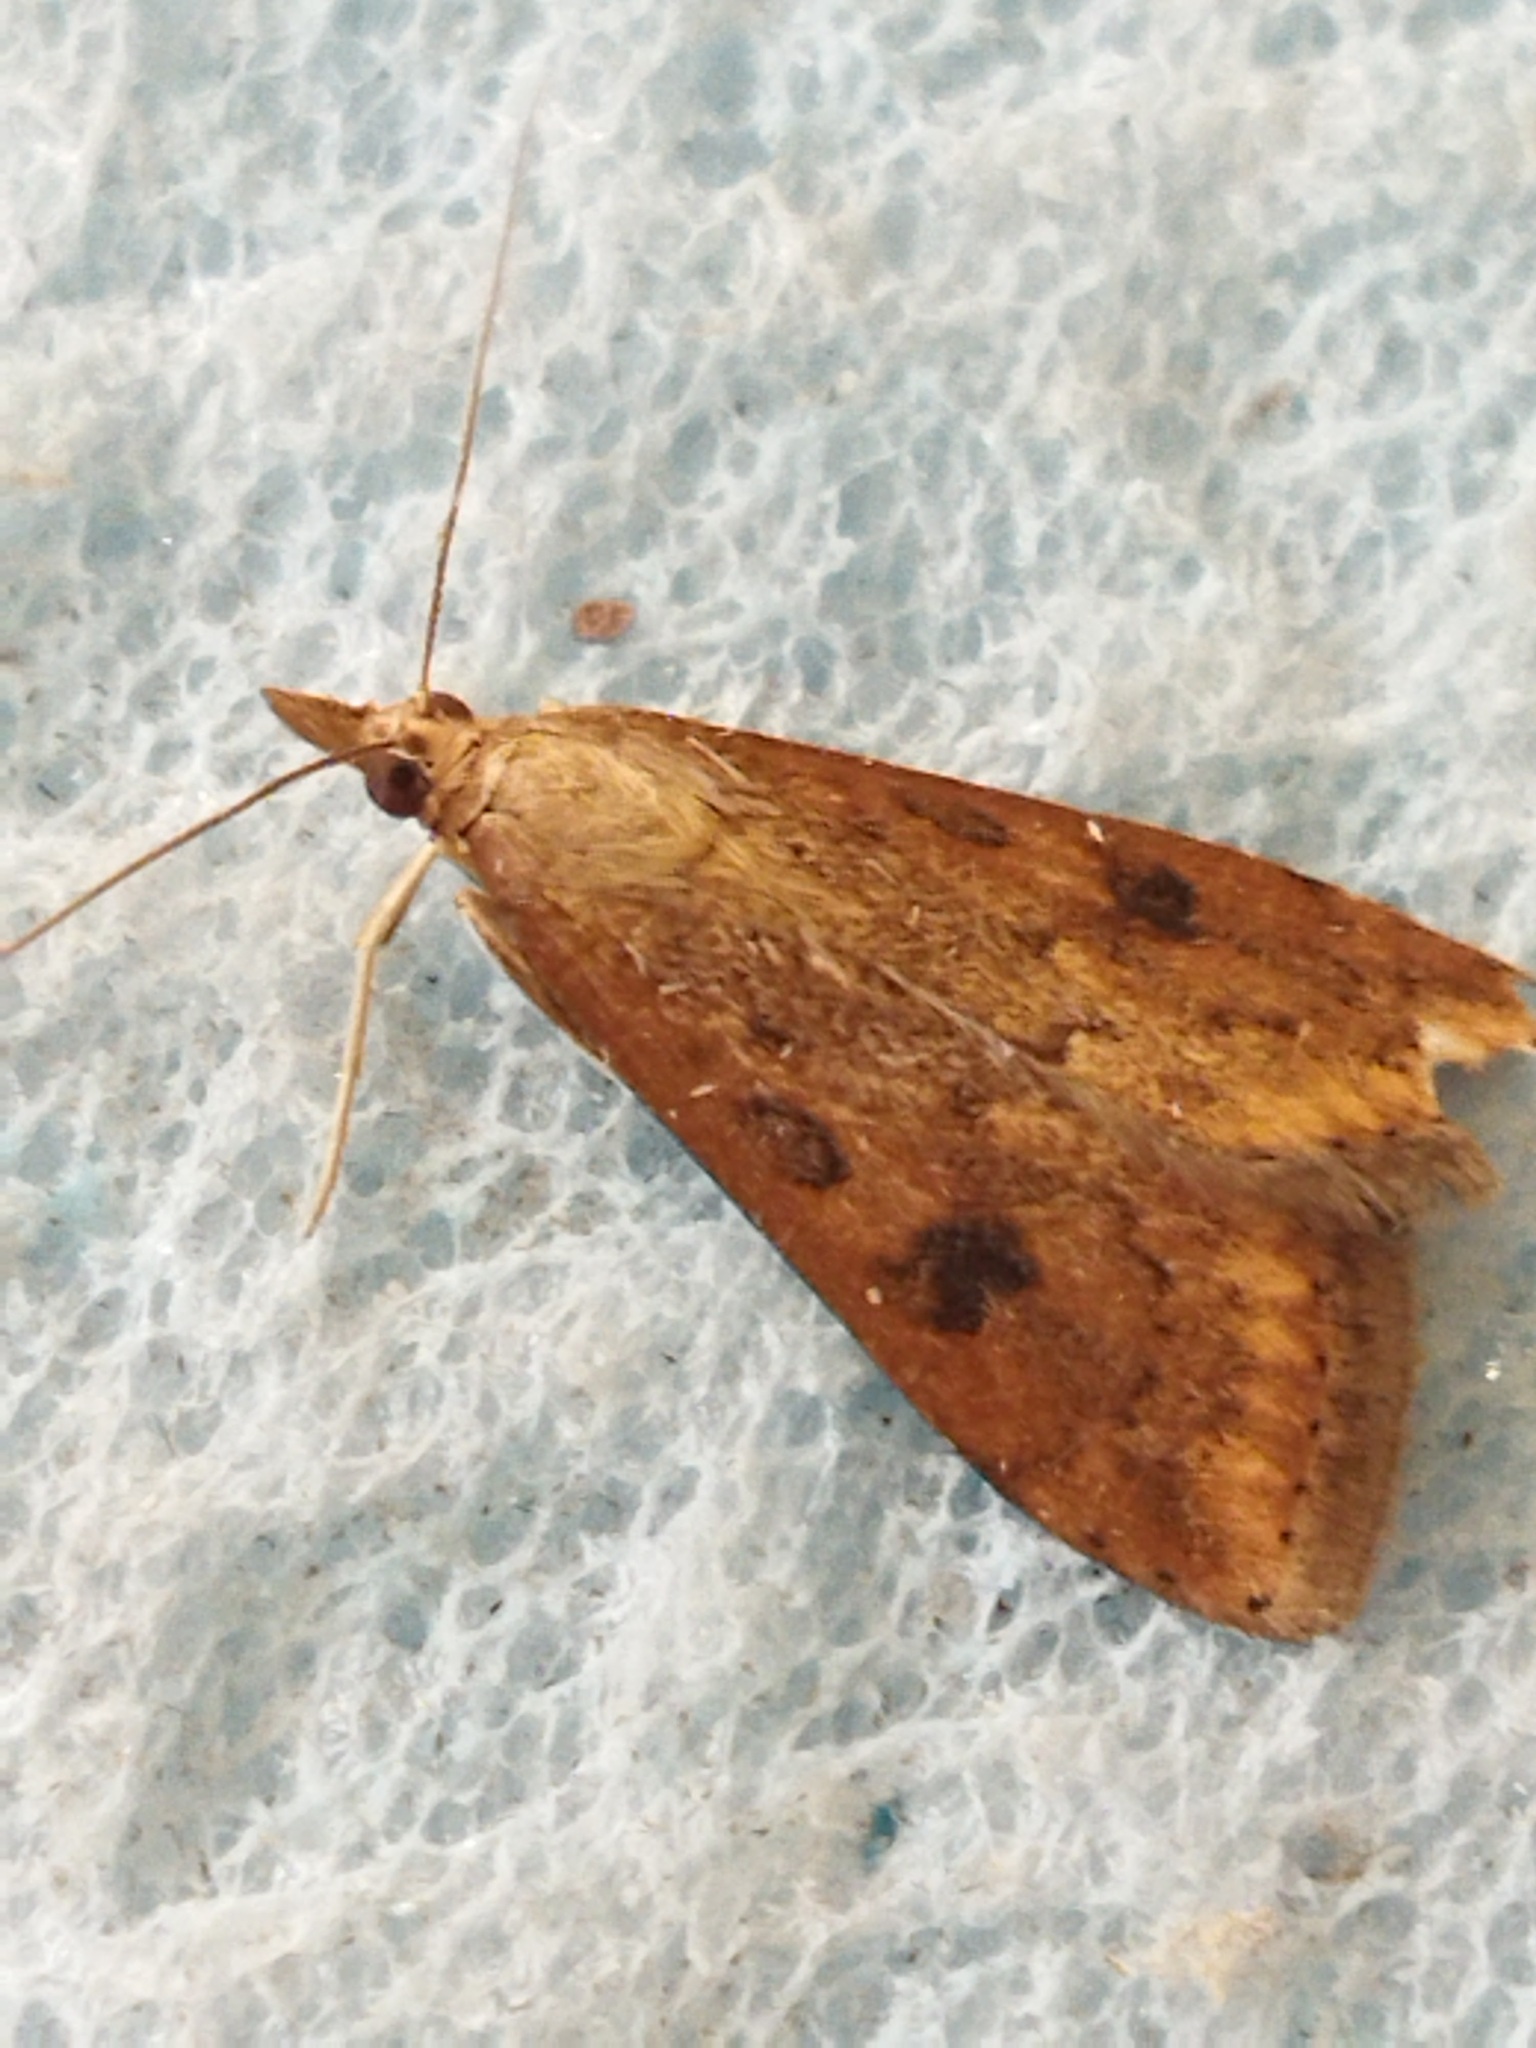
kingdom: Animalia
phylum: Arthropoda
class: Insecta
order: Lepidoptera
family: Crambidae
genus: Udea
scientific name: Udea ferrugalis
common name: Rusty dot
